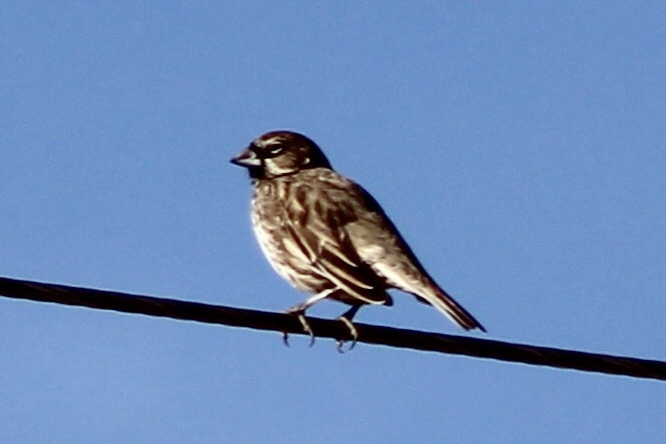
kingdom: Animalia
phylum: Chordata
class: Aves
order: Passeriformes
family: Passerellidae
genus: Calamospiza
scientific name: Calamospiza melanocorys
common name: Lark bunting
